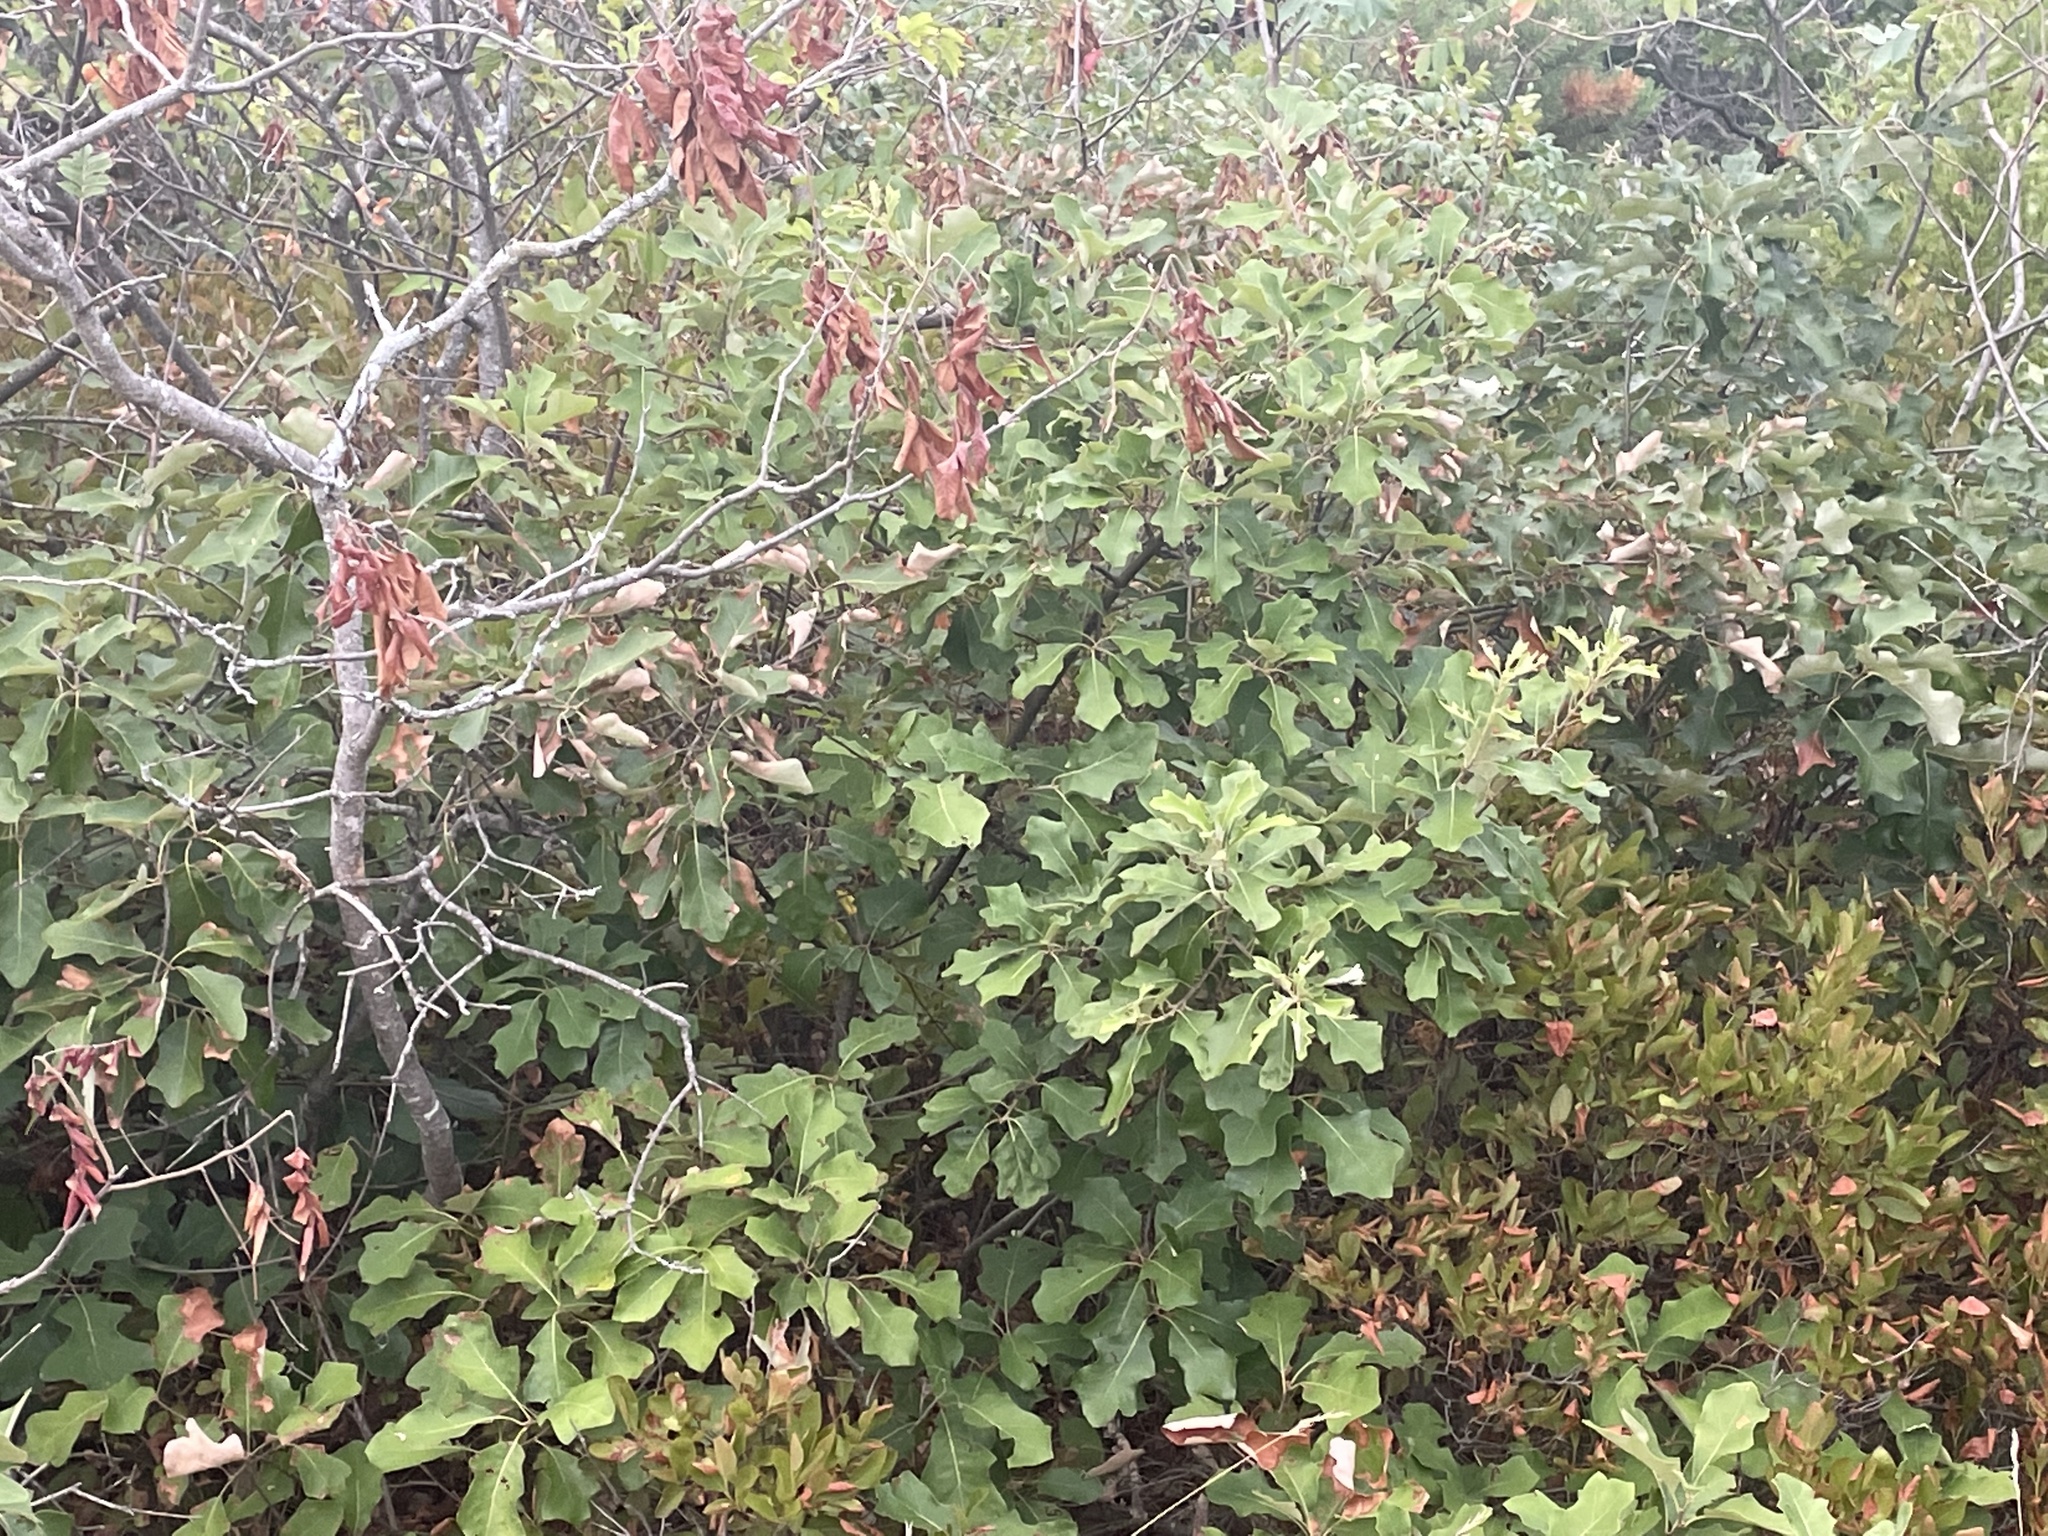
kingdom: Plantae
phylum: Tracheophyta
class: Magnoliopsida
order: Fagales
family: Fagaceae
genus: Quercus
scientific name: Quercus ilicifolia
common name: Bear oak
